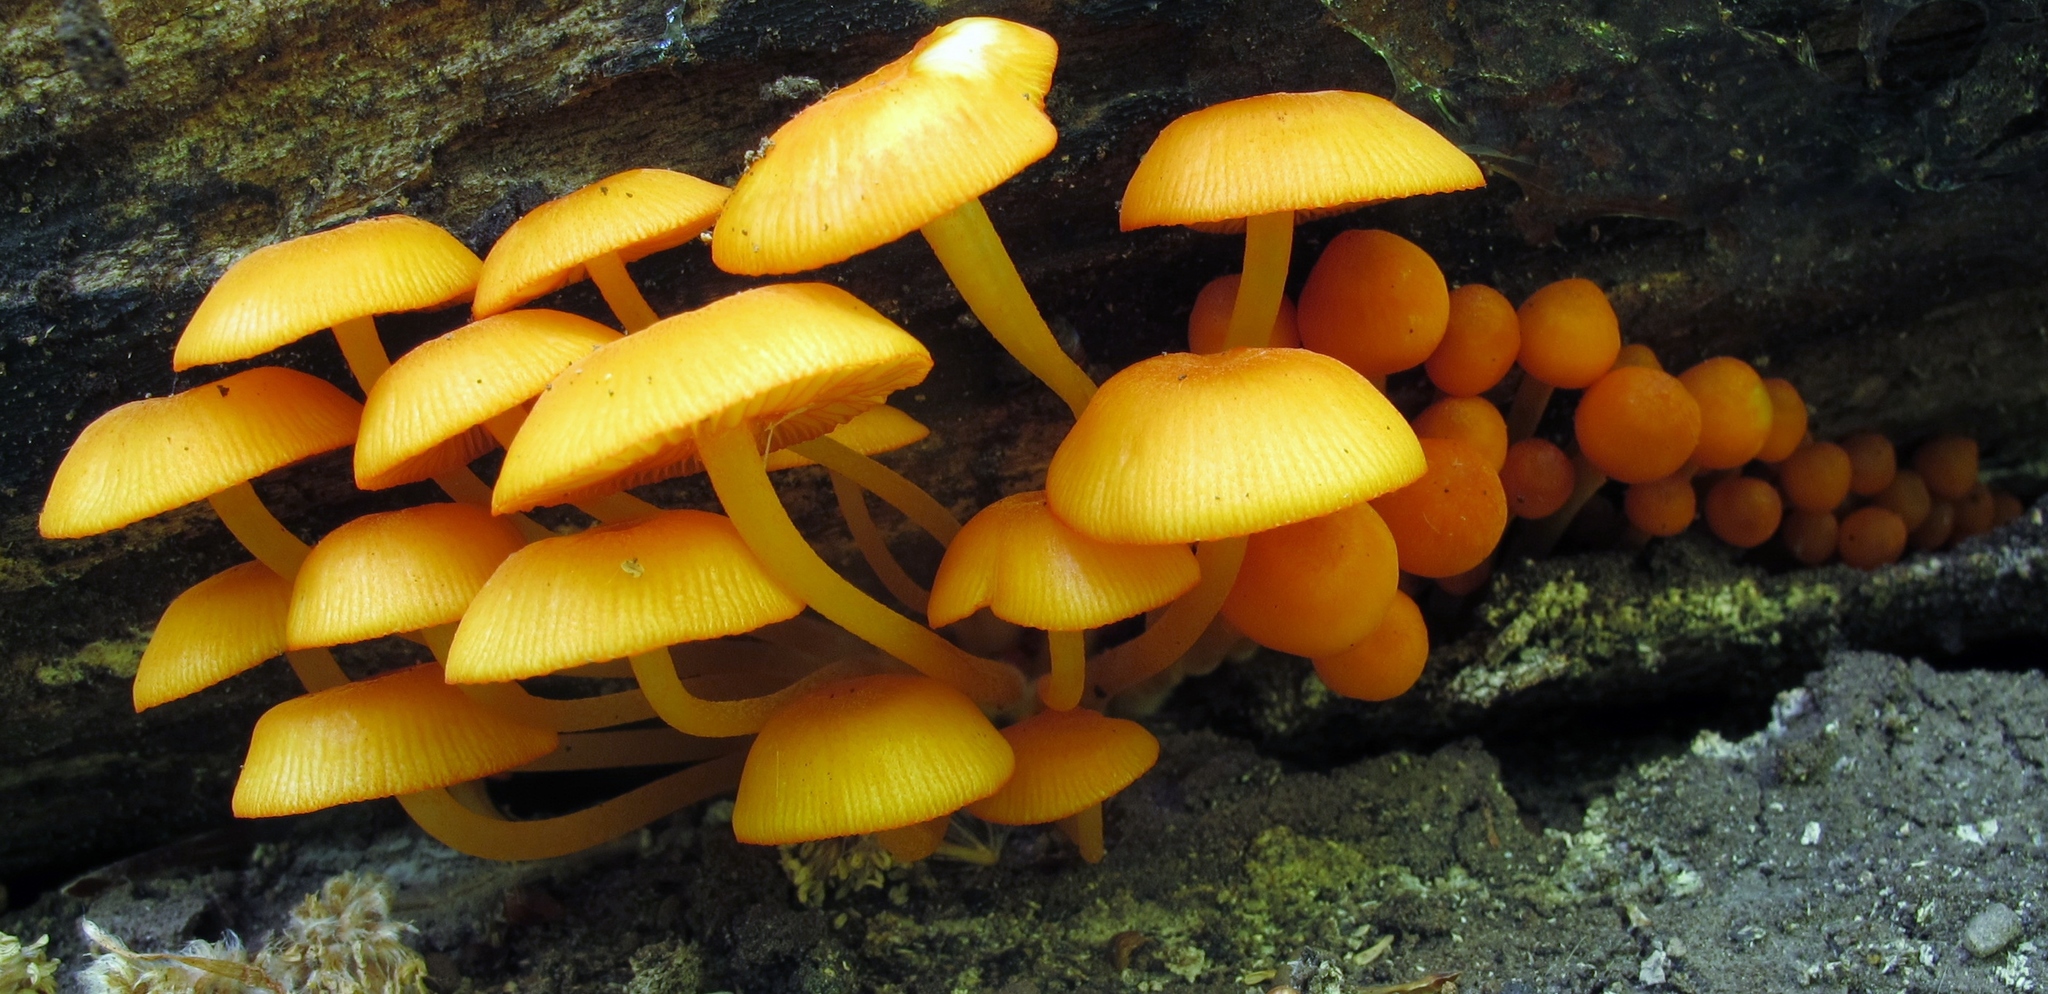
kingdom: Fungi
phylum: Basidiomycota
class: Agaricomycetes
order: Agaricales
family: Mycenaceae
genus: Mycena
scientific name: Mycena leaiana
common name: Orange mycena
